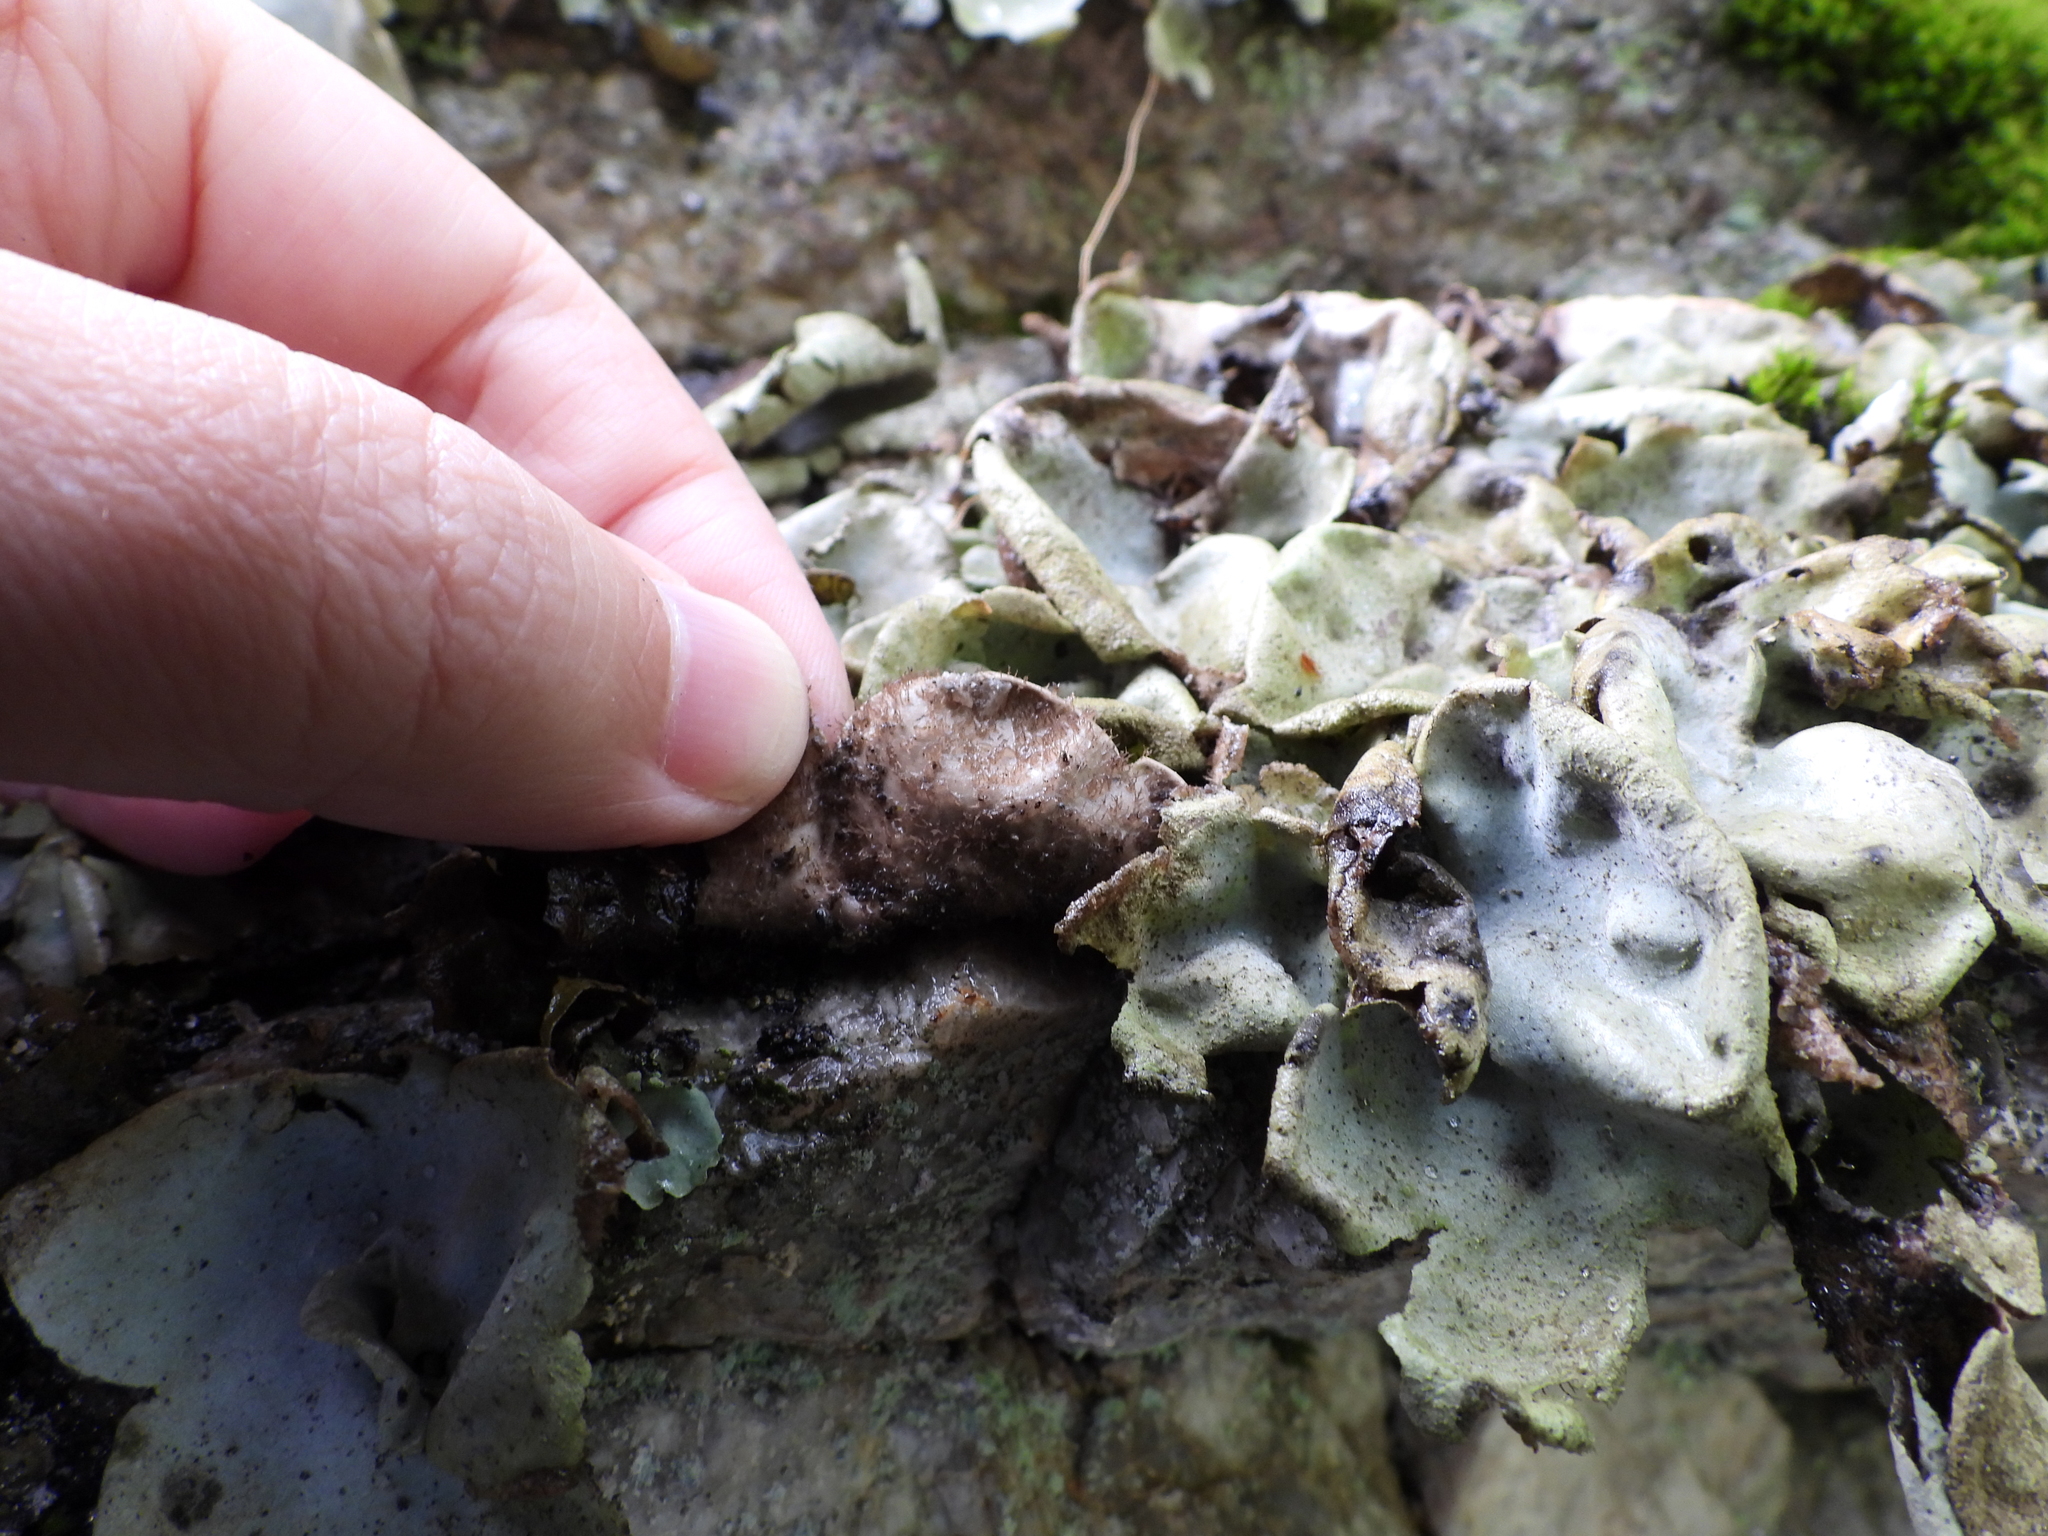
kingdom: Fungi
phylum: Ascomycota
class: Lecanoromycetes
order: Umbilicariales
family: Umbilicariaceae
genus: Umbilicaria
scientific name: Umbilicaria hirsuta
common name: Granulating rocktripe lichen
